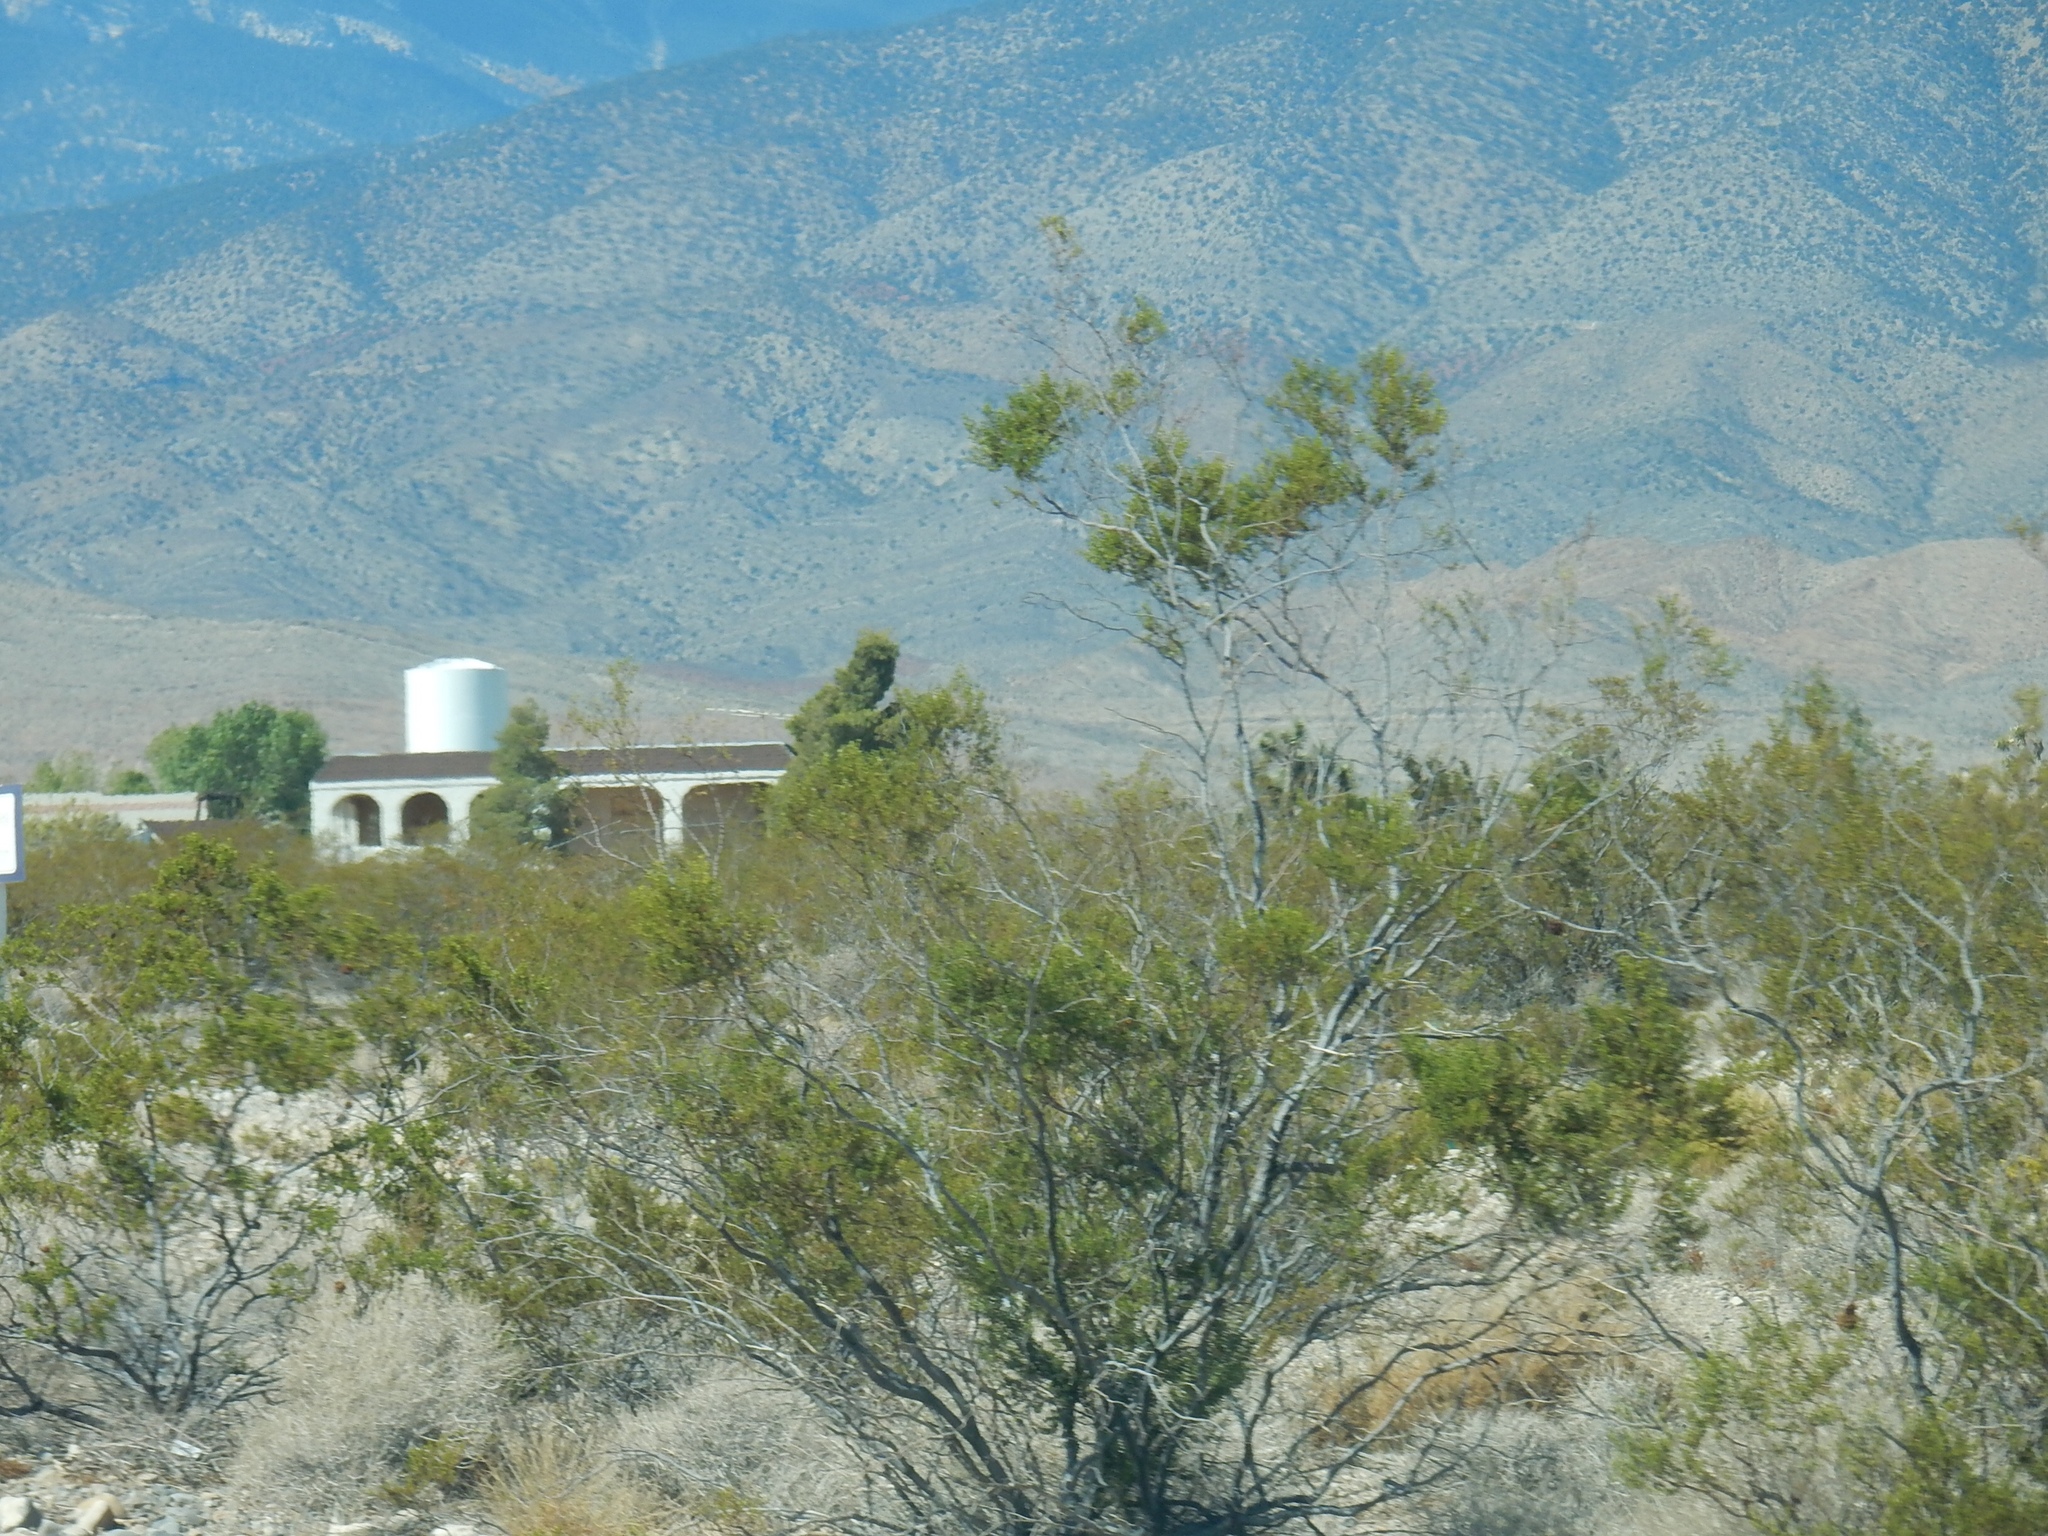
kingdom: Plantae
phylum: Tracheophyta
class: Magnoliopsida
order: Zygophyllales
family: Zygophyllaceae
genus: Larrea
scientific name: Larrea tridentata
